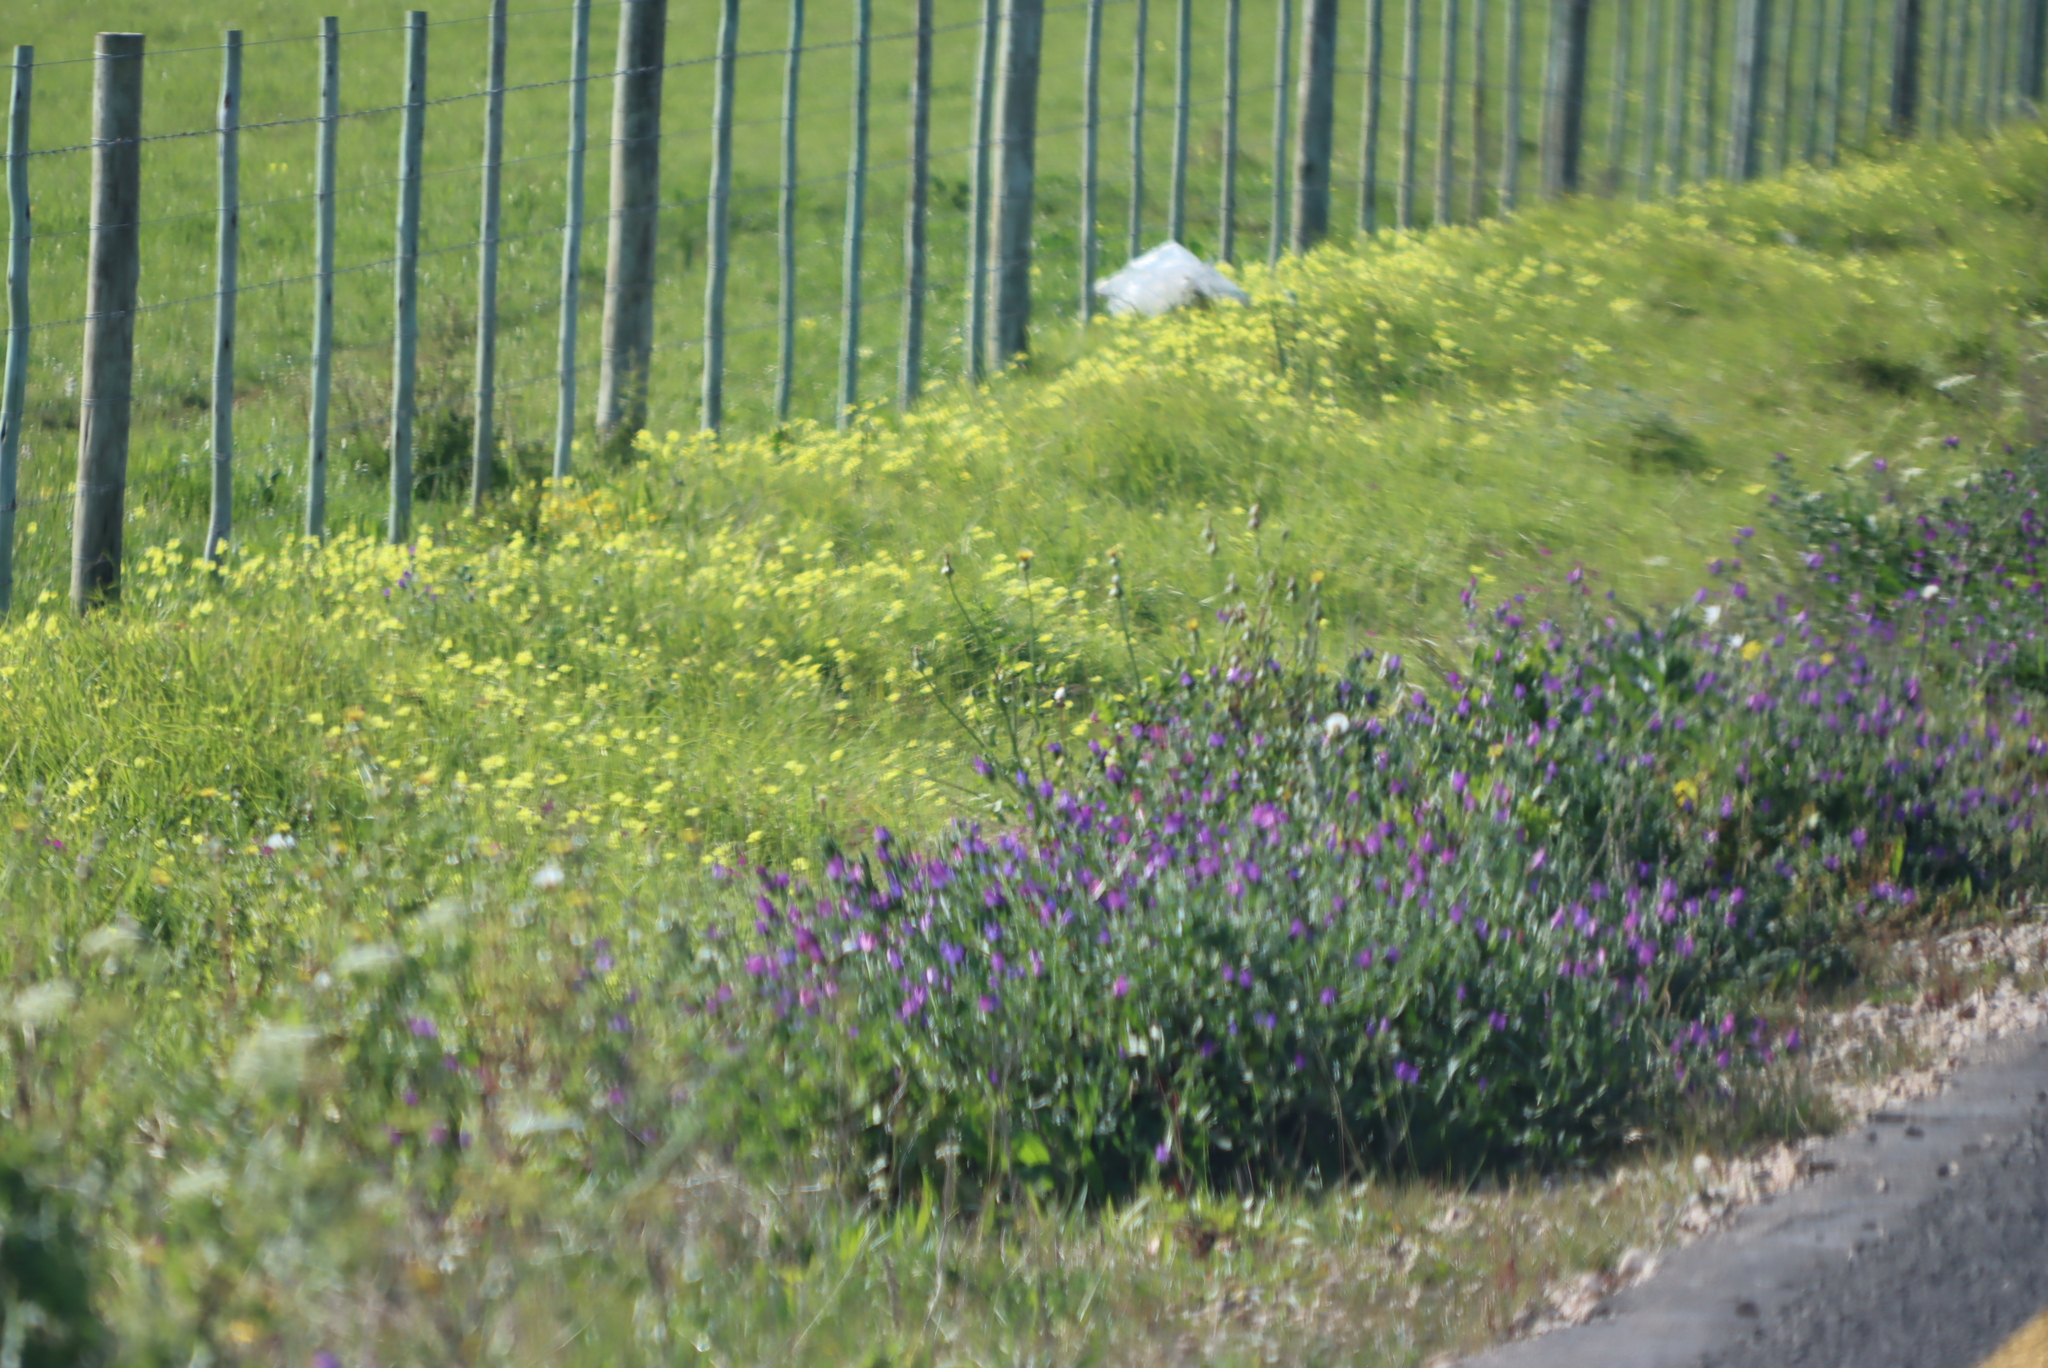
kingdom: Plantae
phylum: Tracheophyta
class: Magnoliopsida
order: Boraginales
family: Boraginaceae
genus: Echium
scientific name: Echium plantagineum
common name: Purple viper's-bugloss
